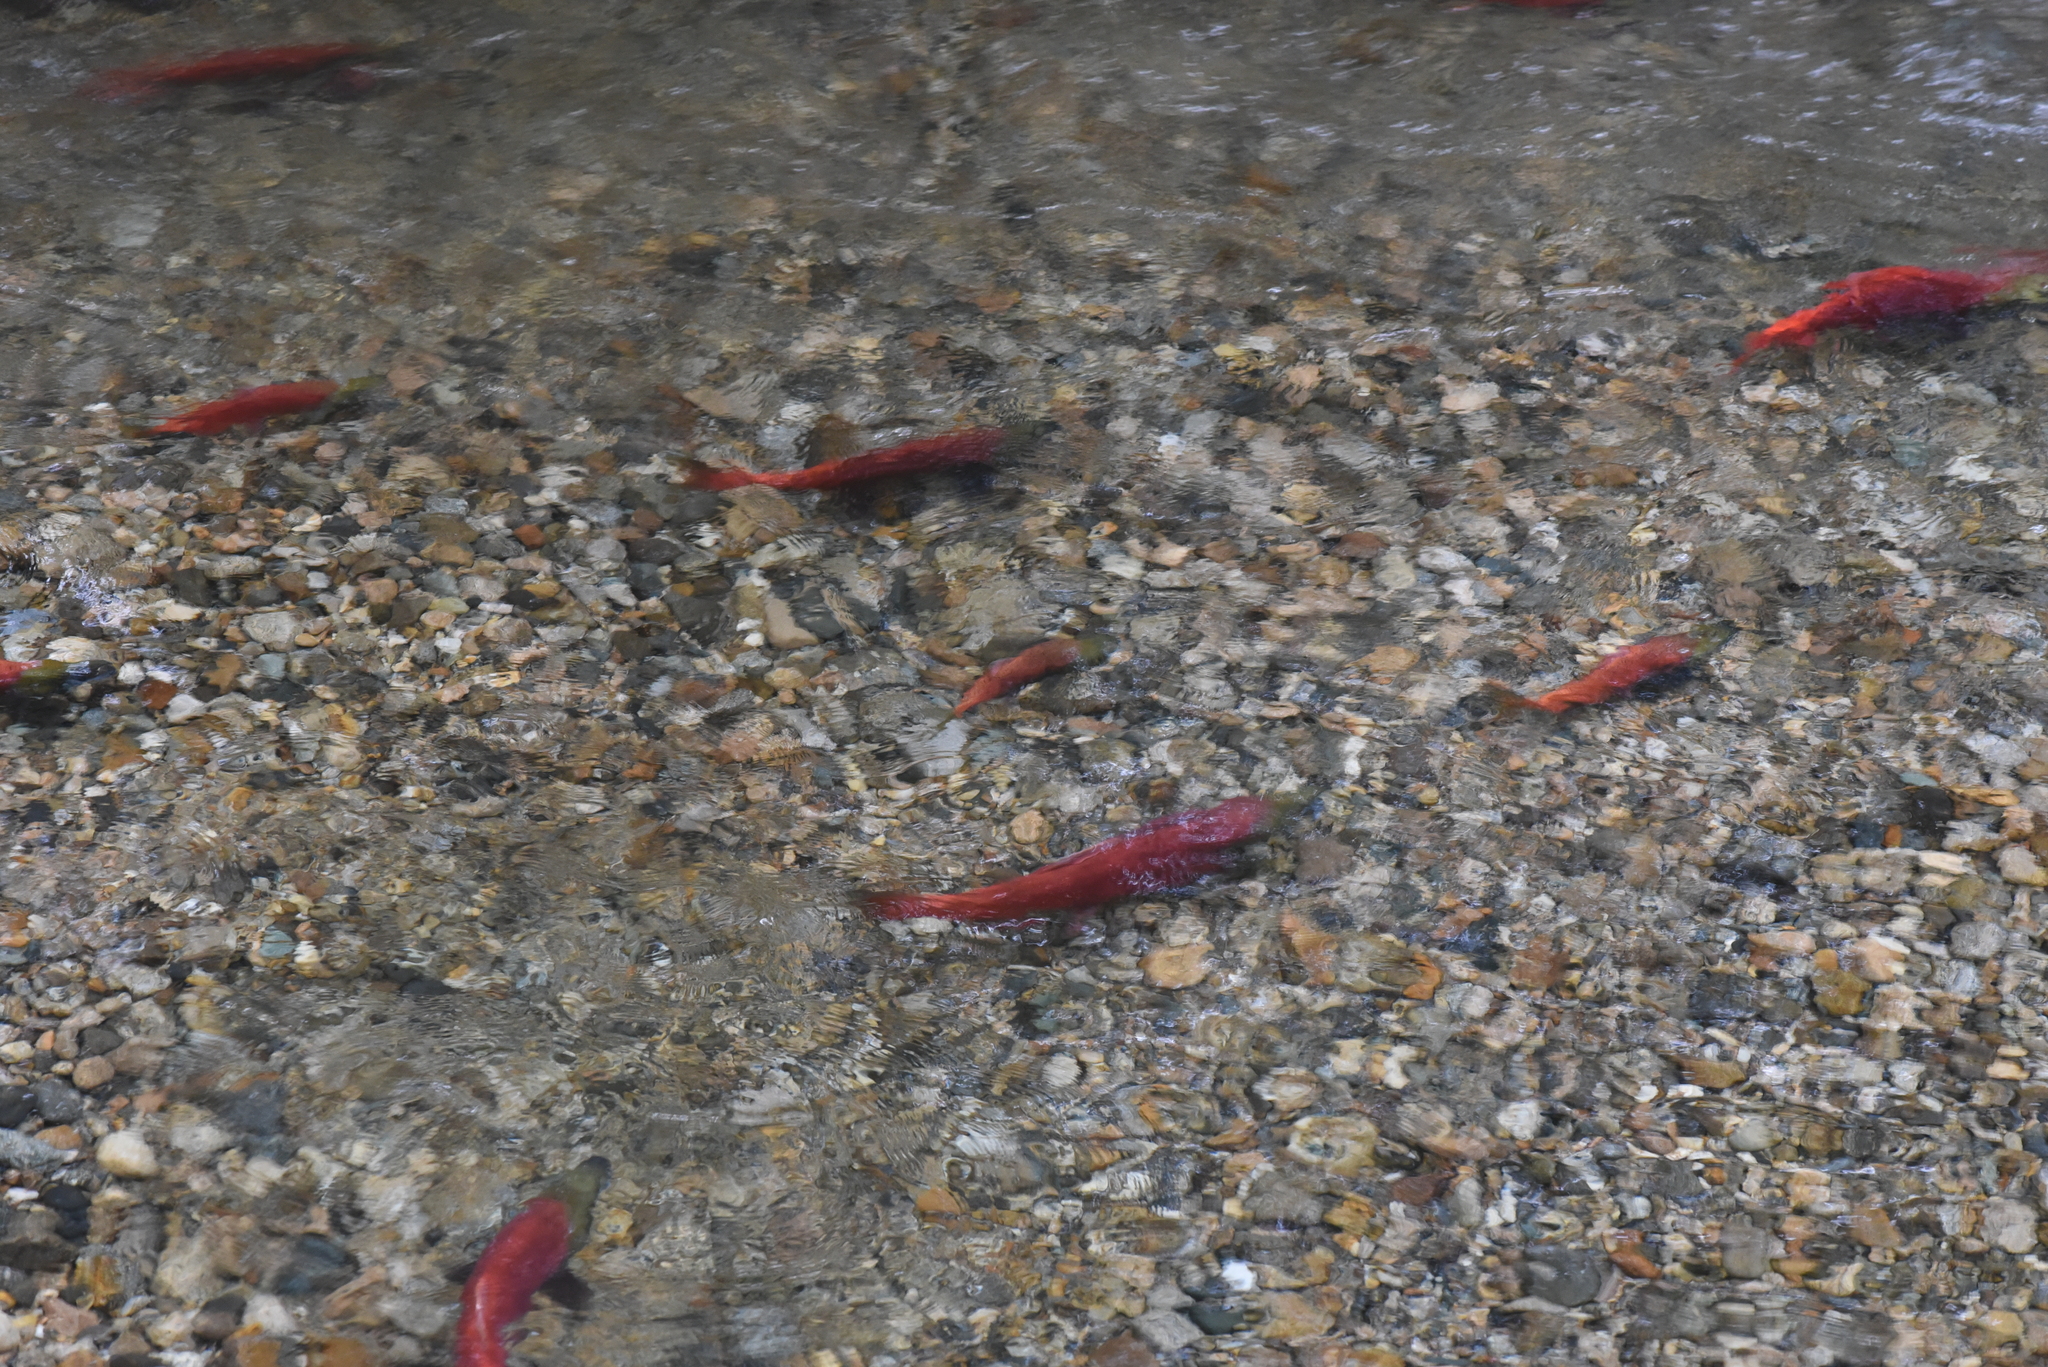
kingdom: Animalia
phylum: Chordata
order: Salmoniformes
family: Salmonidae
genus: Oncorhynchus
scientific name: Oncorhynchus nerka
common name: Sockeye salmon
